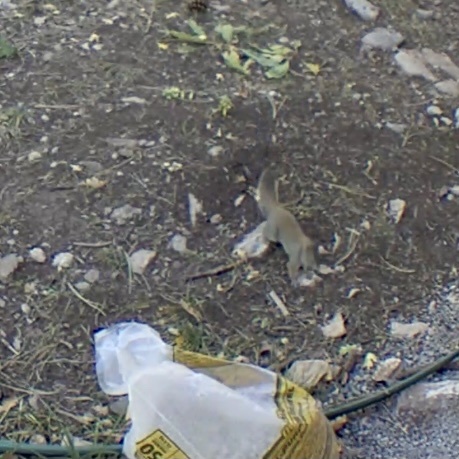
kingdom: Animalia
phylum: Chordata
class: Mammalia
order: Rodentia
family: Sciuridae
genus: Tamiasciurus
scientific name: Tamiasciurus hudsonicus
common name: Red squirrel
